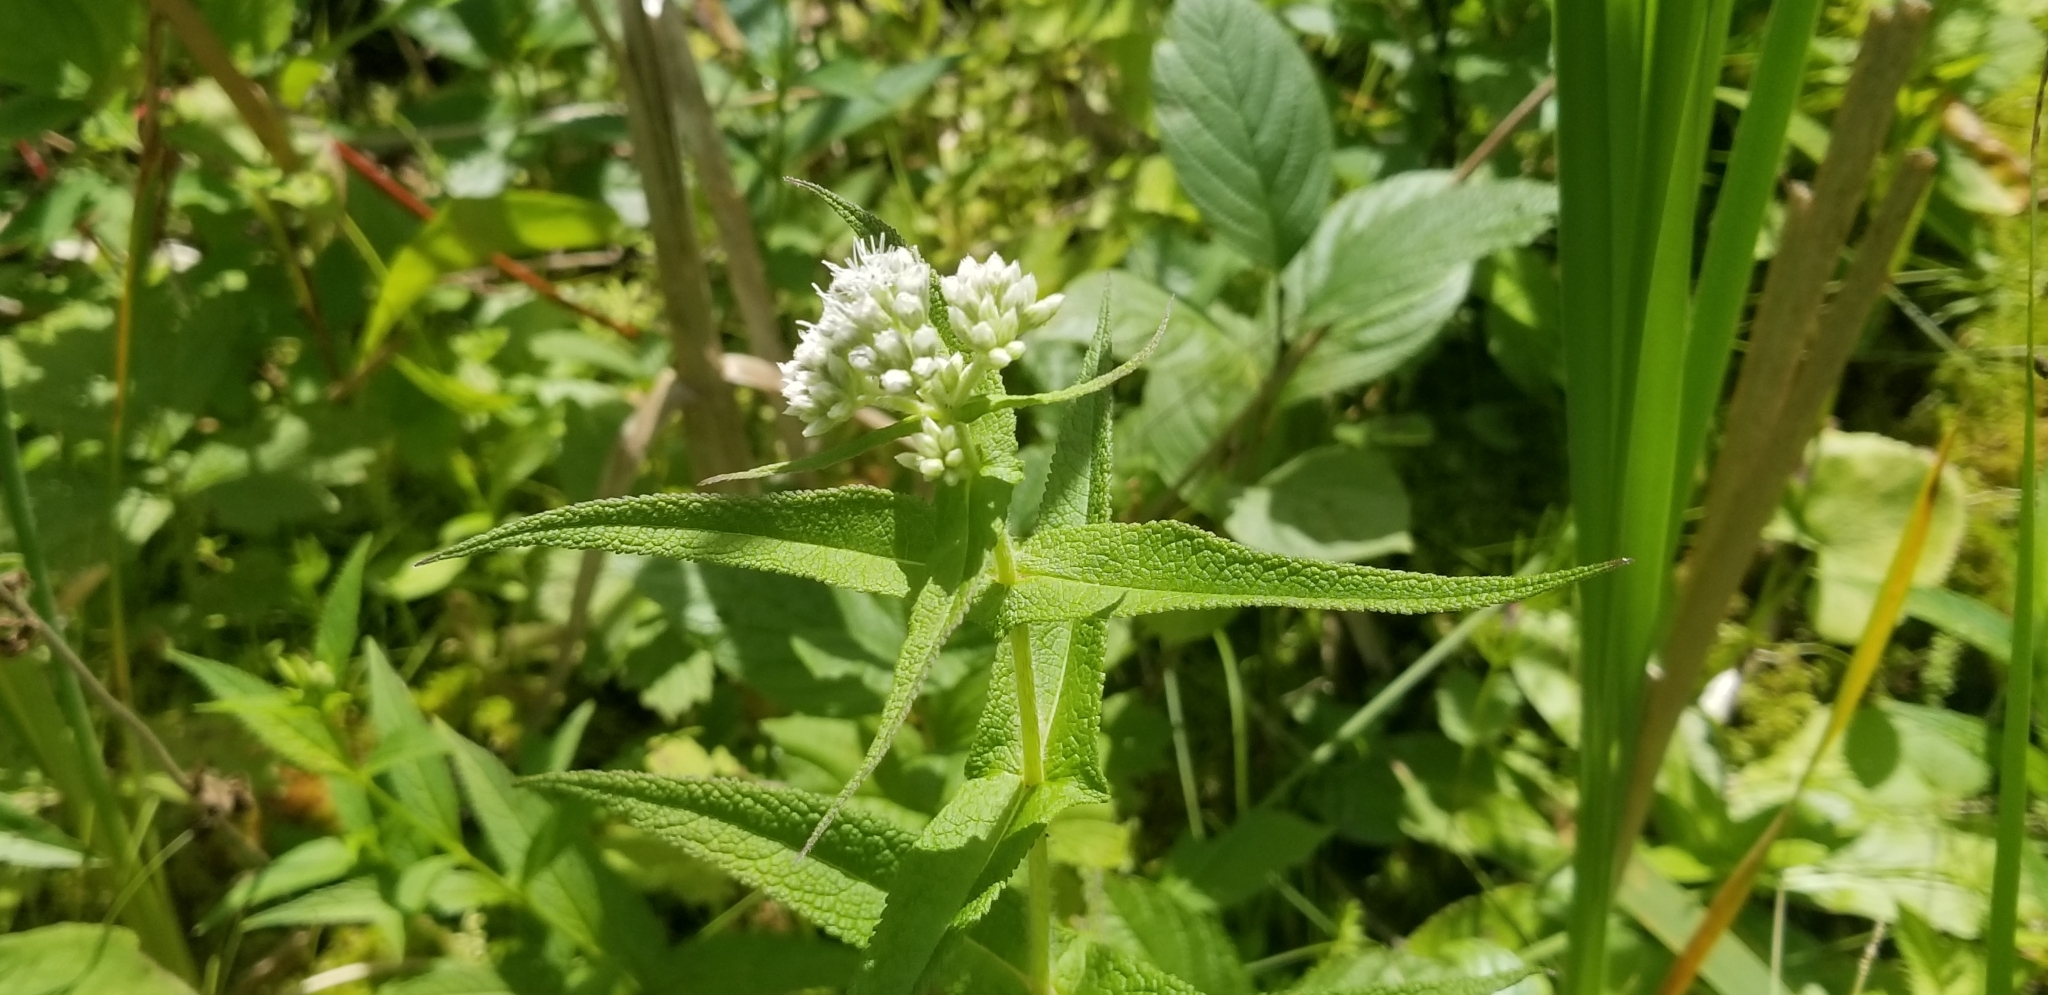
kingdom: Plantae
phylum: Tracheophyta
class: Magnoliopsida
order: Asterales
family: Asteraceae
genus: Eupatorium
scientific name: Eupatorium perfoliatum
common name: Boneset
